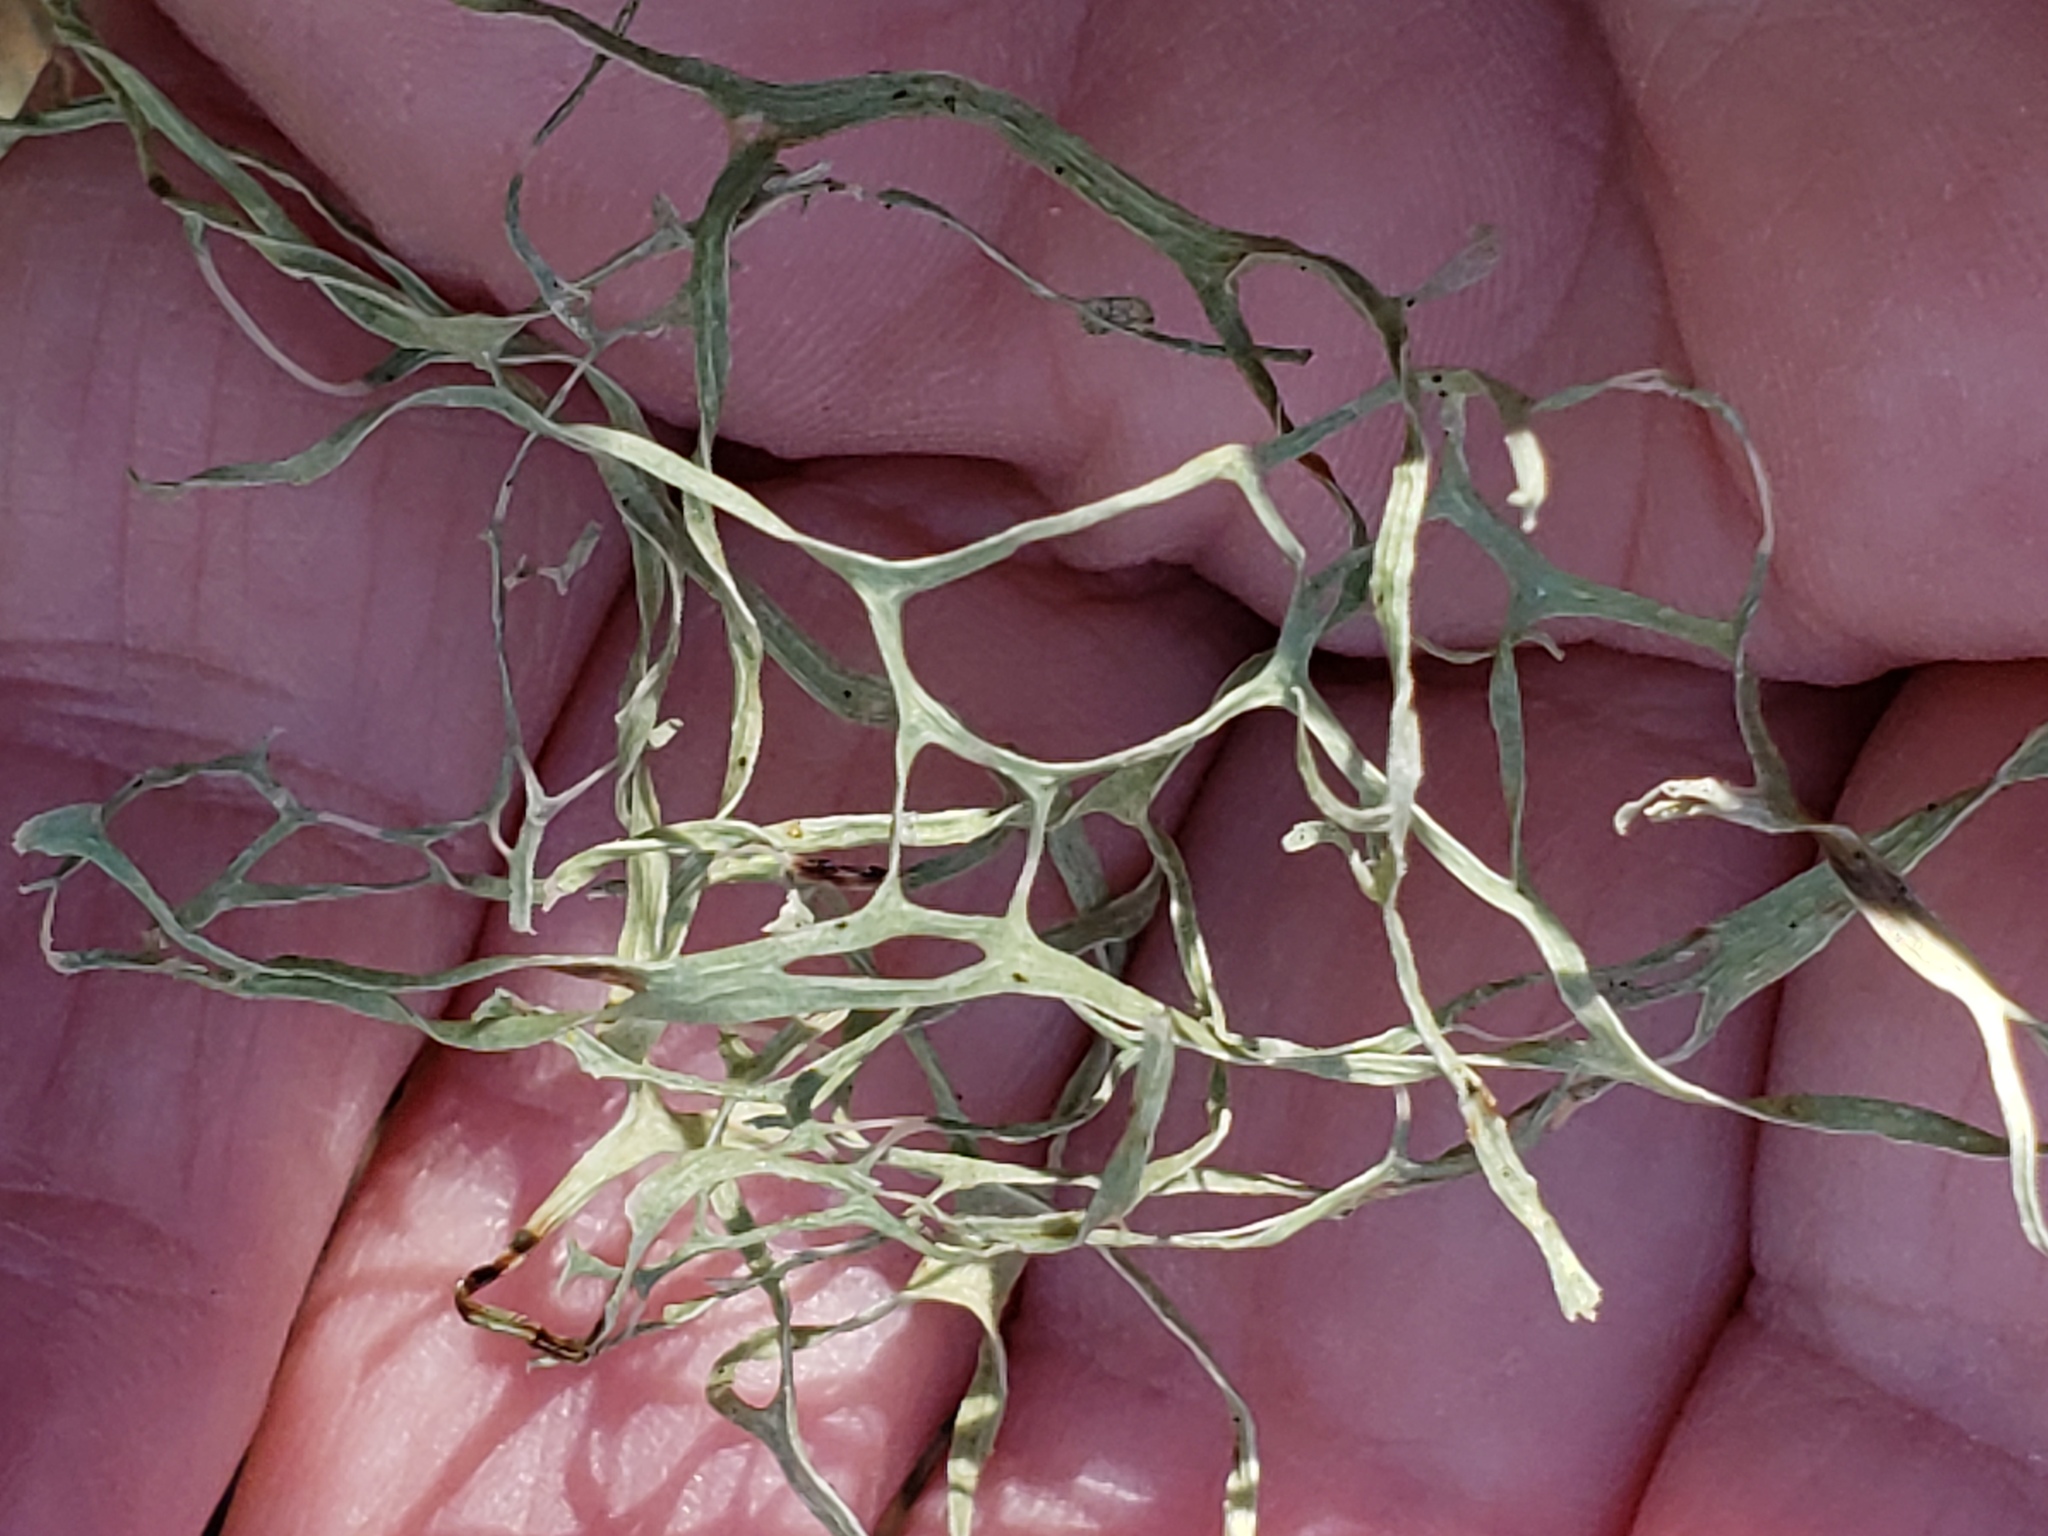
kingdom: Fungi
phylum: Ascomycota
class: Lecanoromycetes
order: Lecanorales
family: Ramalinaceae
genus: Ramalina
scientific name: Ramalina menziesii
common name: Lace lichen
